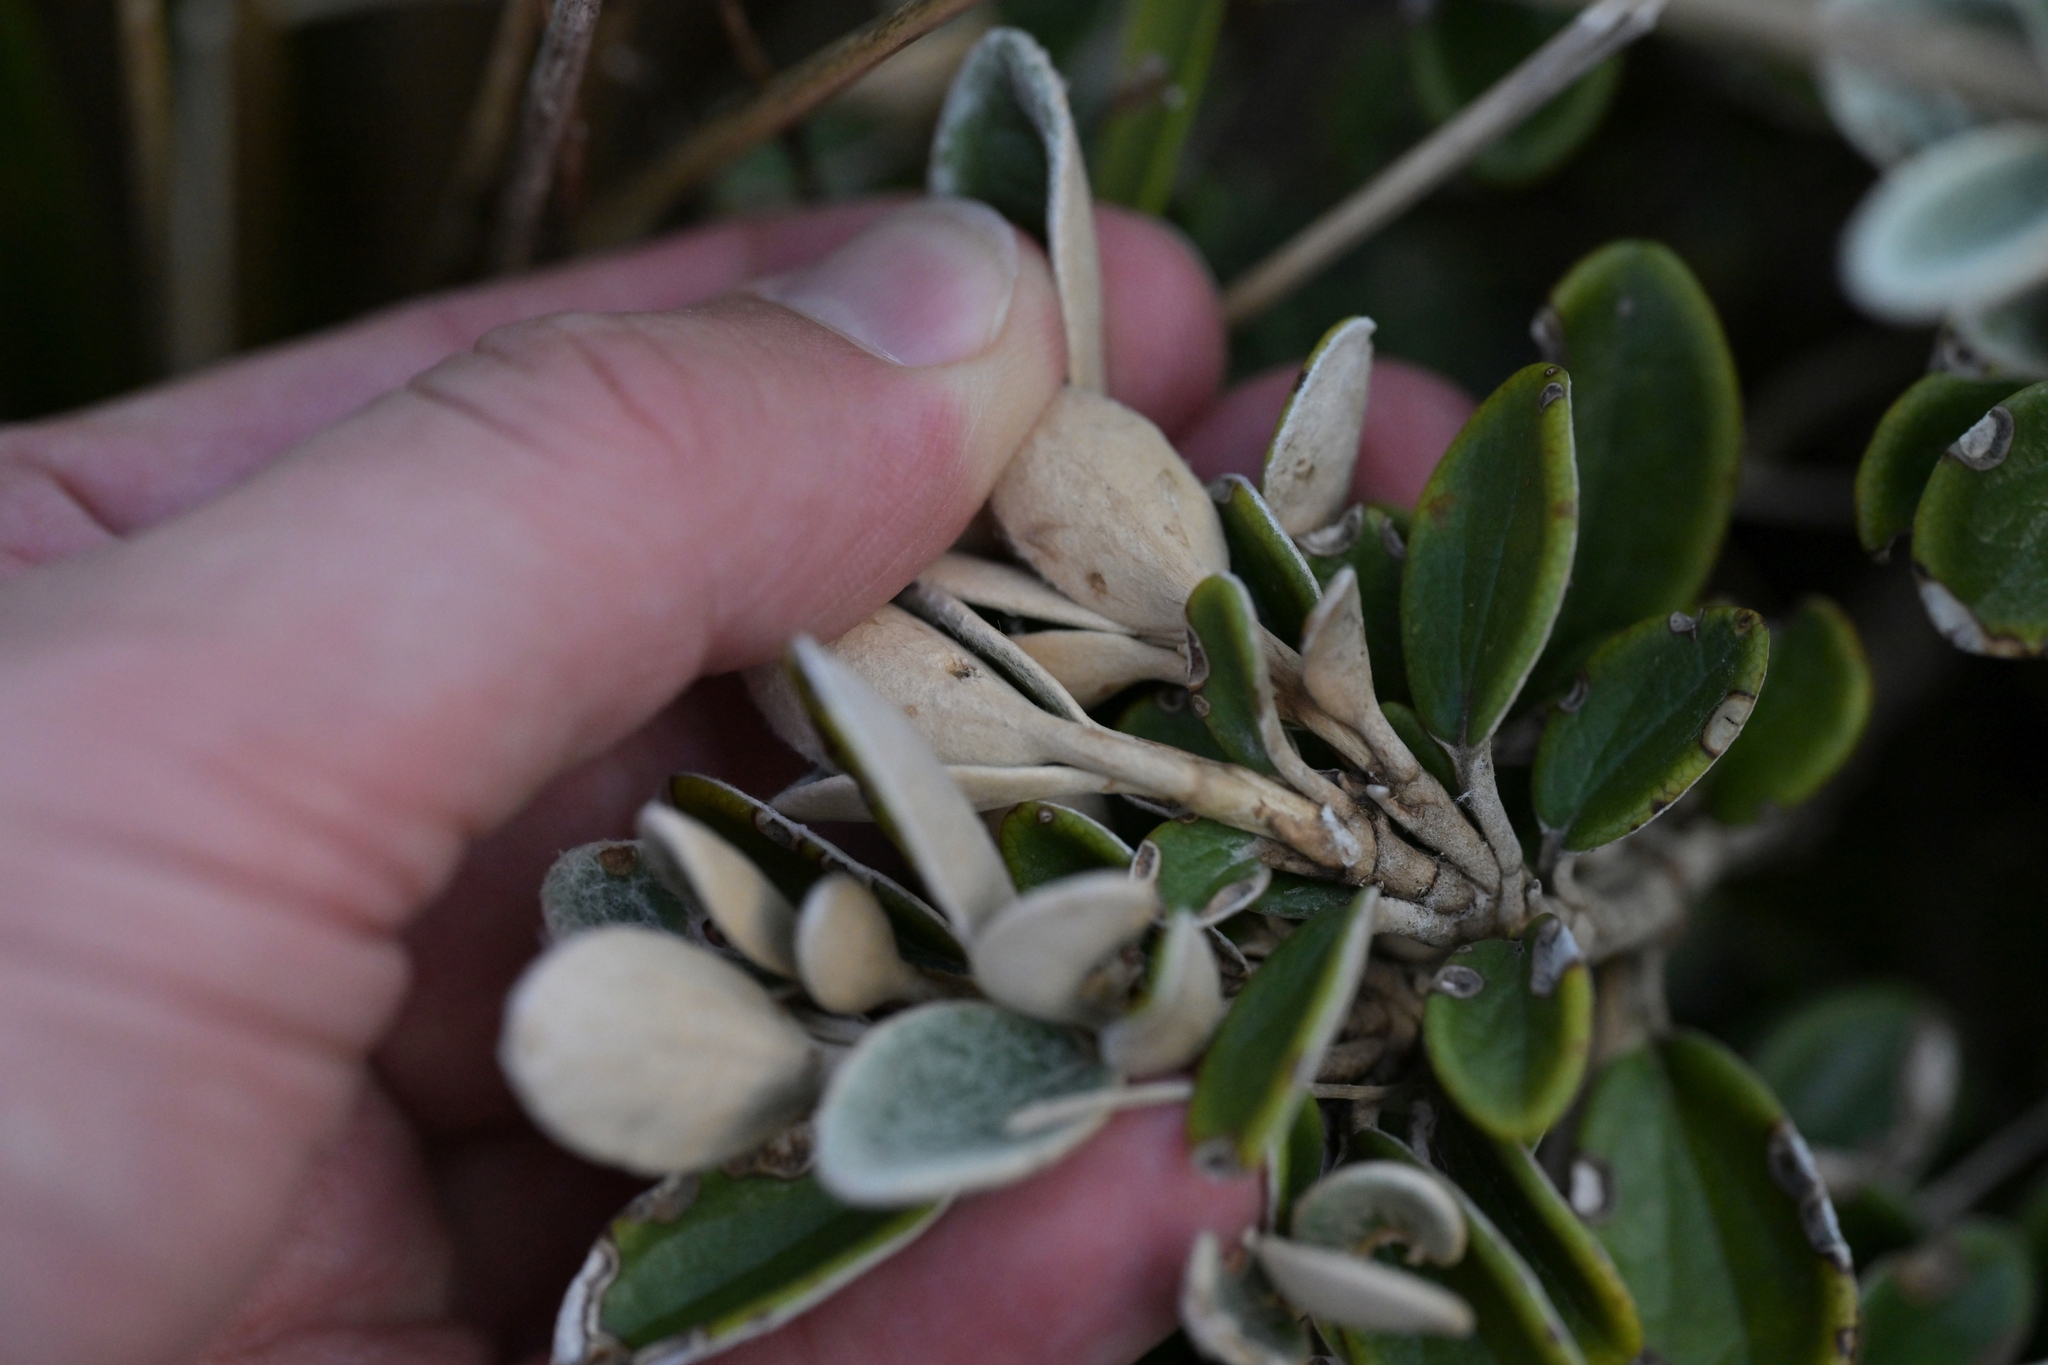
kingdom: Plantae
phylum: Tracheophyta
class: Magnoliopsida
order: Asterales
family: Asteraceae
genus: Brachyglottis
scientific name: Brachyglottis bidwillii
